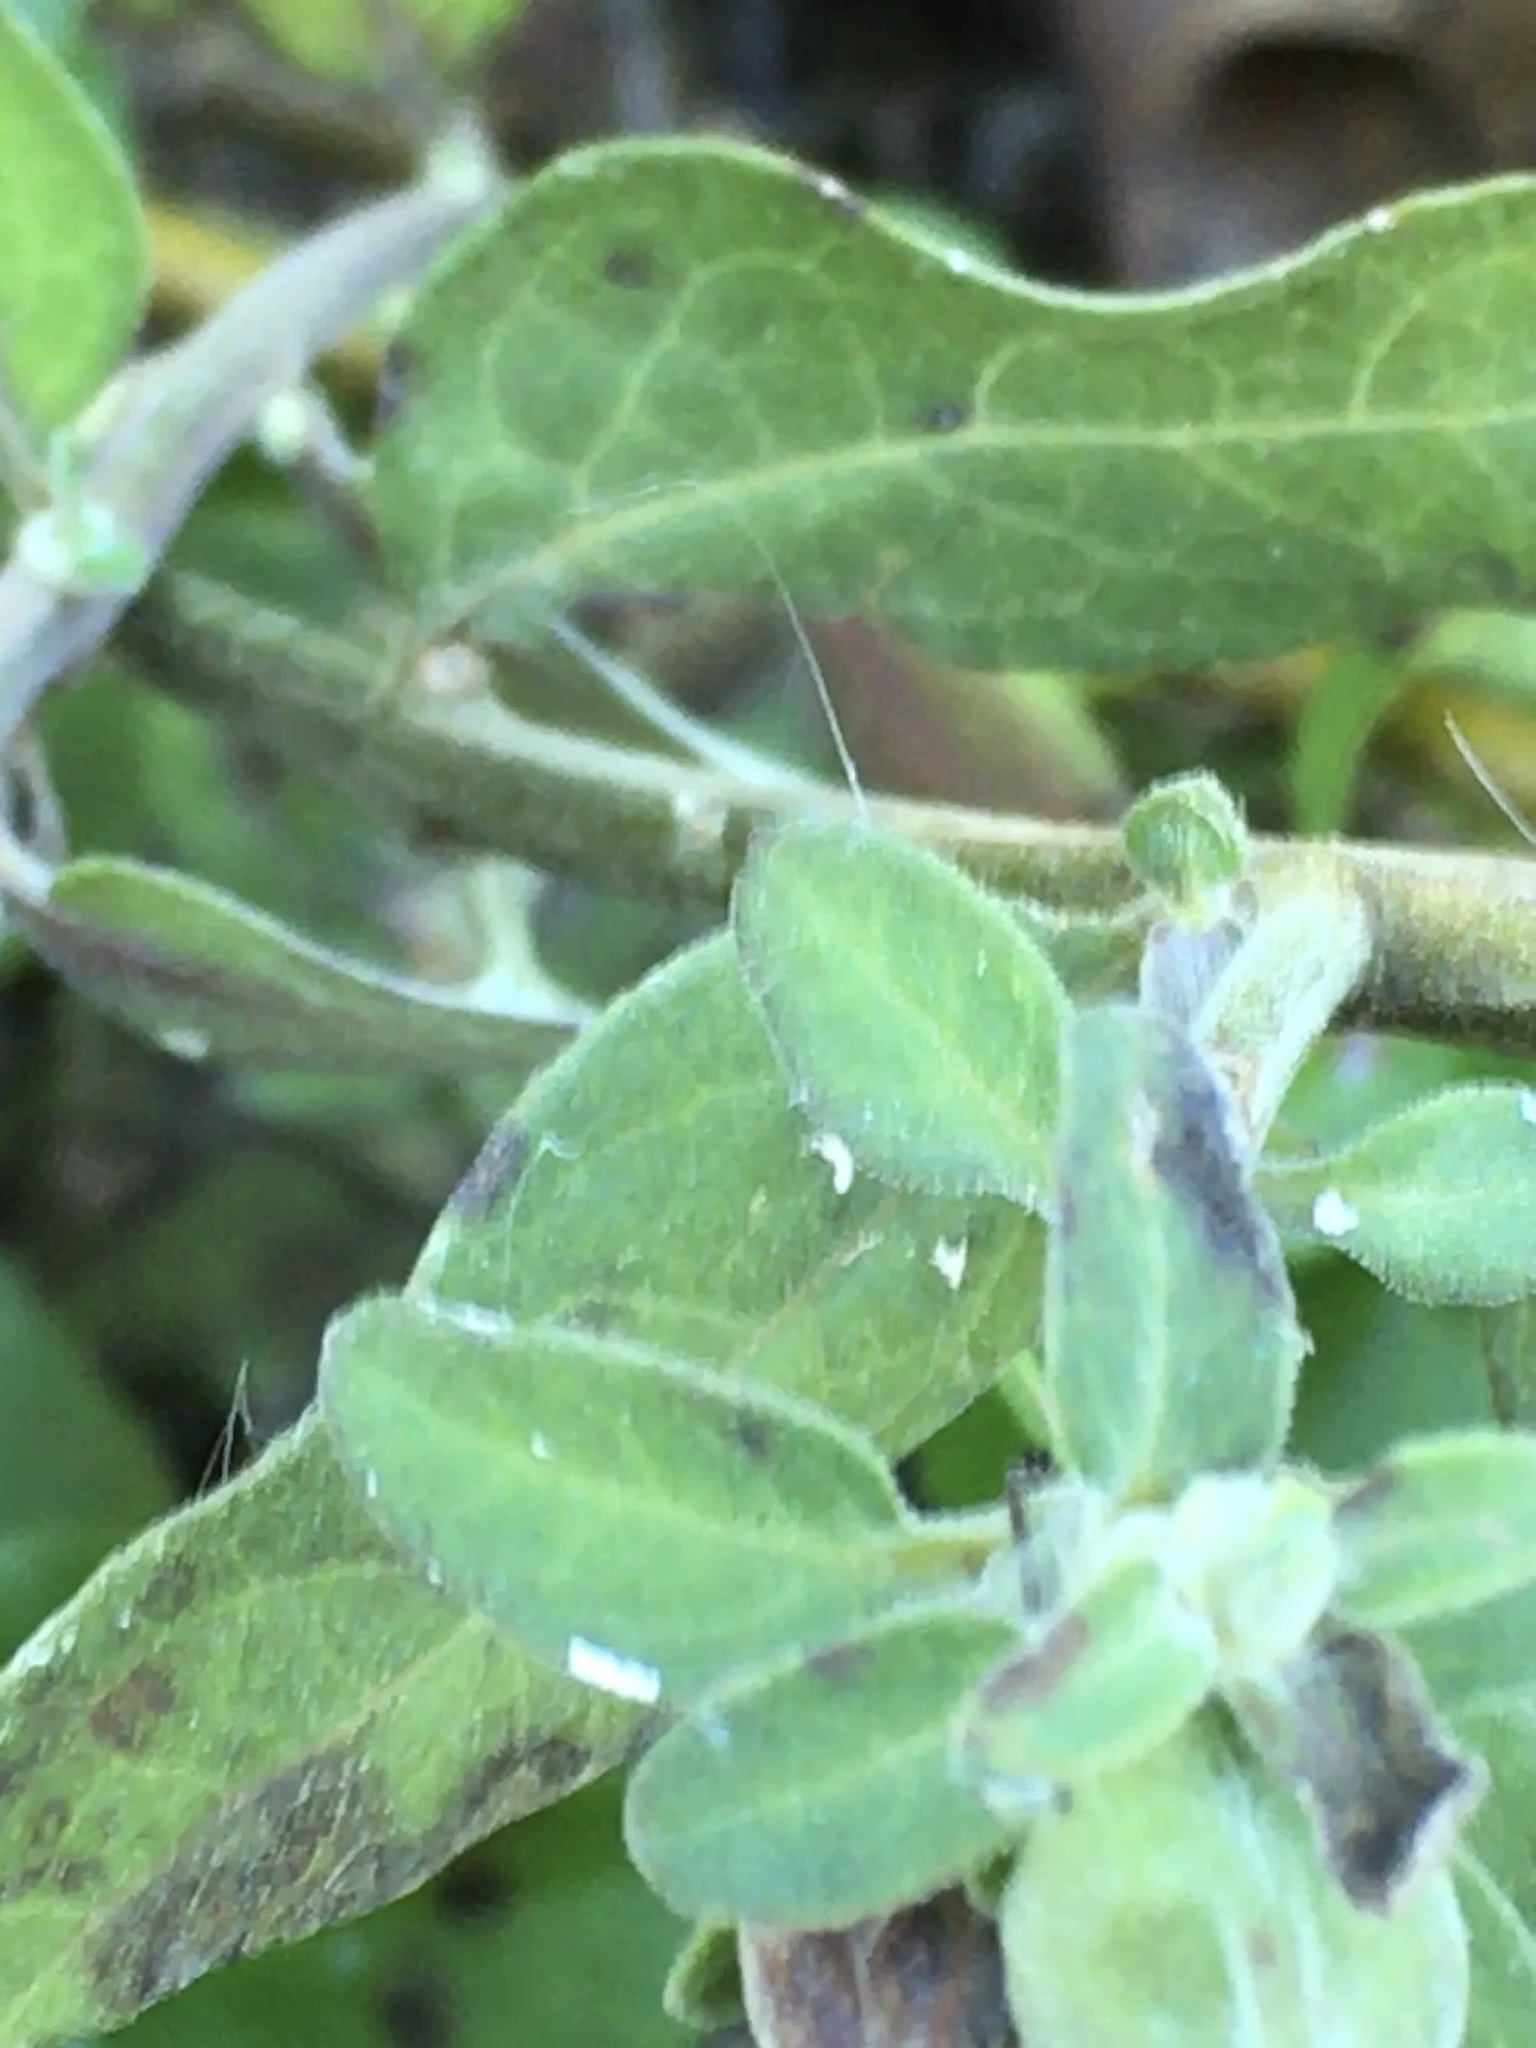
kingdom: Plantae
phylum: Tracheophyta
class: Magnoliopsida
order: Lamiales
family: Orobanchaceae
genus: Aureolaria
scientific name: Aureolaria virginica
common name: Downy false foxglove
